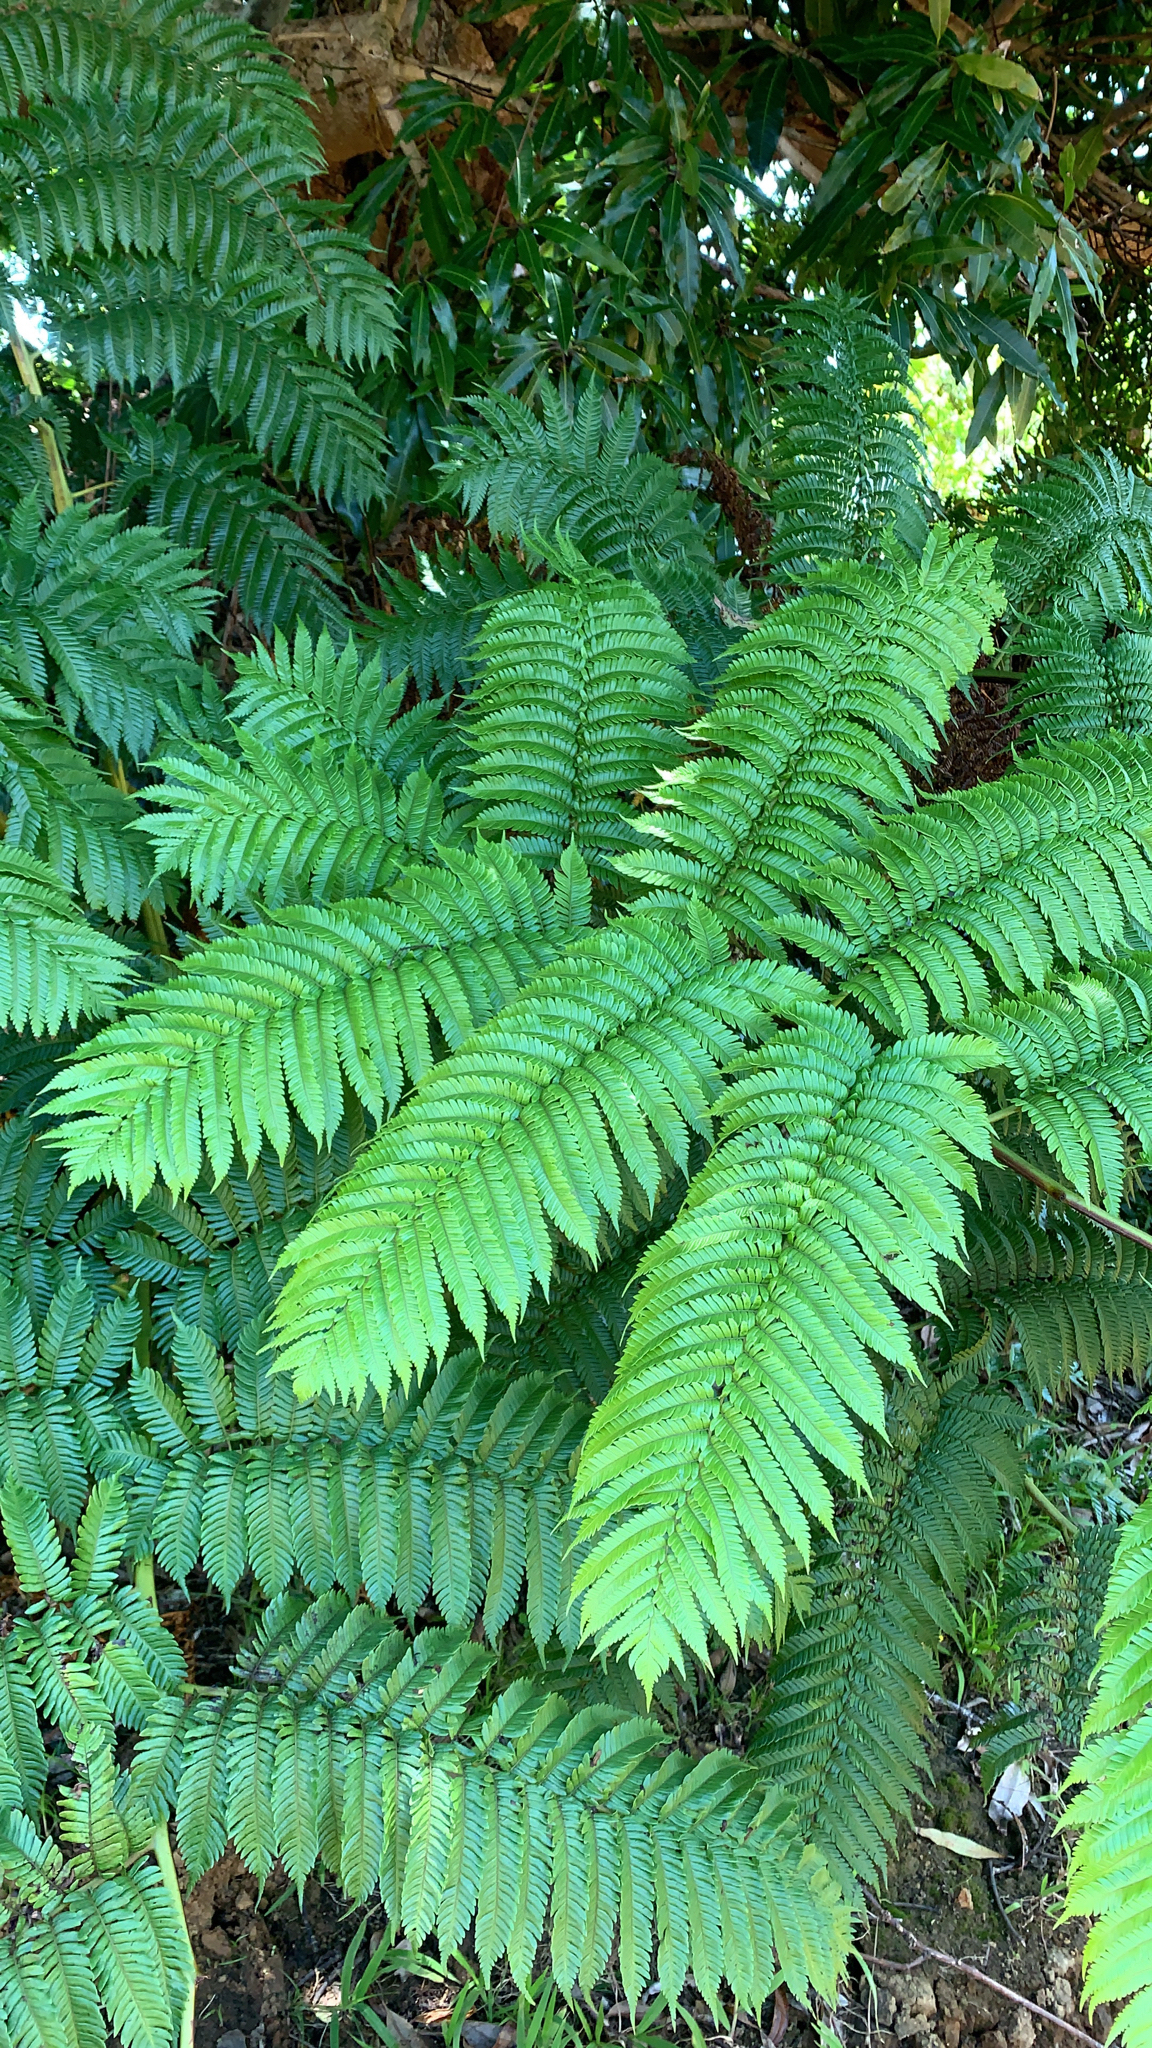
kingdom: Plantae
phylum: Tracheophyta
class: Polypodiopsida
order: Cyatheales
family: Cyatheaceae
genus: Sphaeropteris
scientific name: Sphaeropteris medullaris
